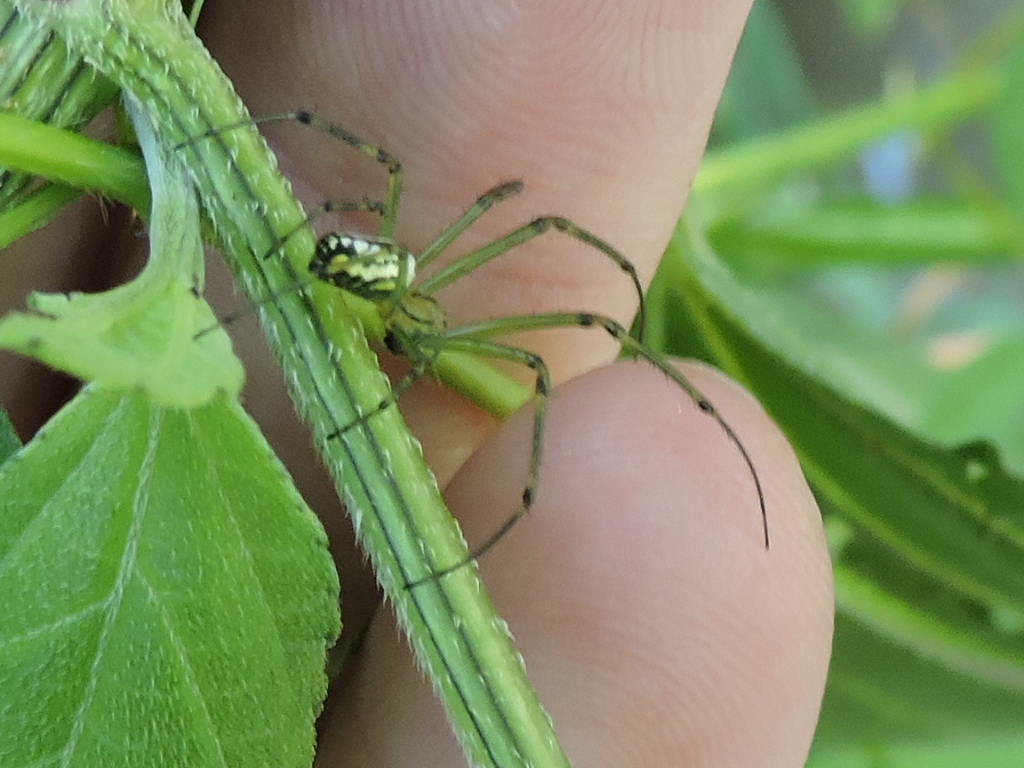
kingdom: Animalia
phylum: Arthropoda
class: Arachnida
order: Araneae
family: Tetragnathidae
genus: Leucauge
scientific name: Leucauge venusta
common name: Longjawed orb weavers
